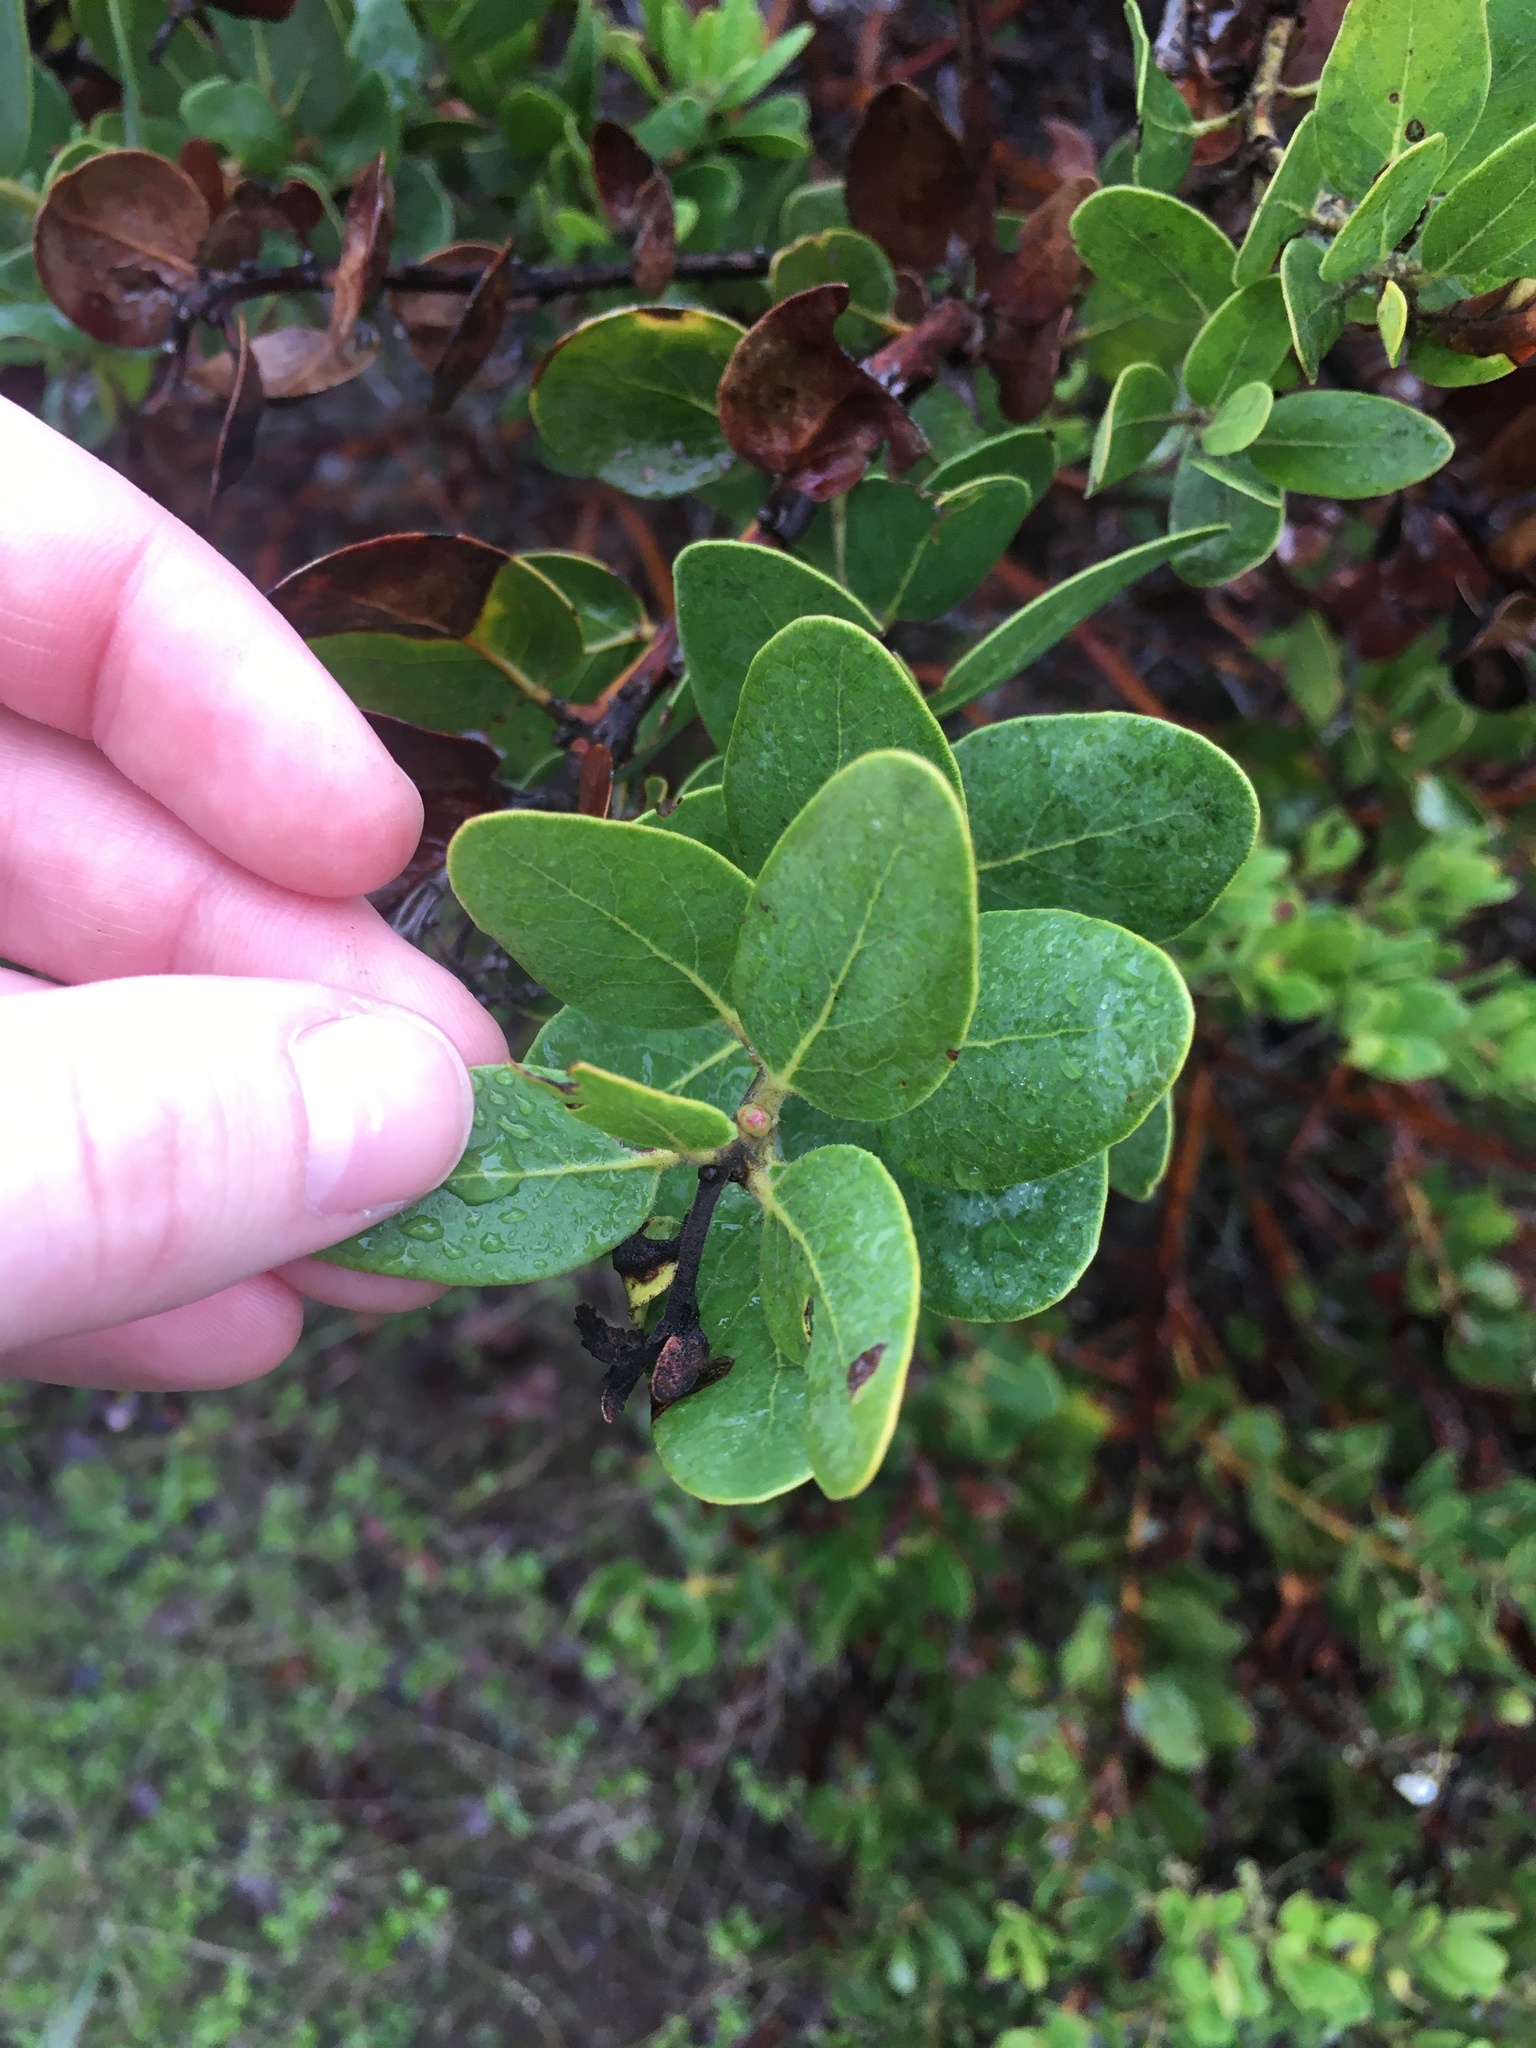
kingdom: Plantae
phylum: Tracheophyta
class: Magnoliopsida
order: Ericales
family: Ericaceae
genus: Arctostaphylos
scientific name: Arctostaphylos insularis
